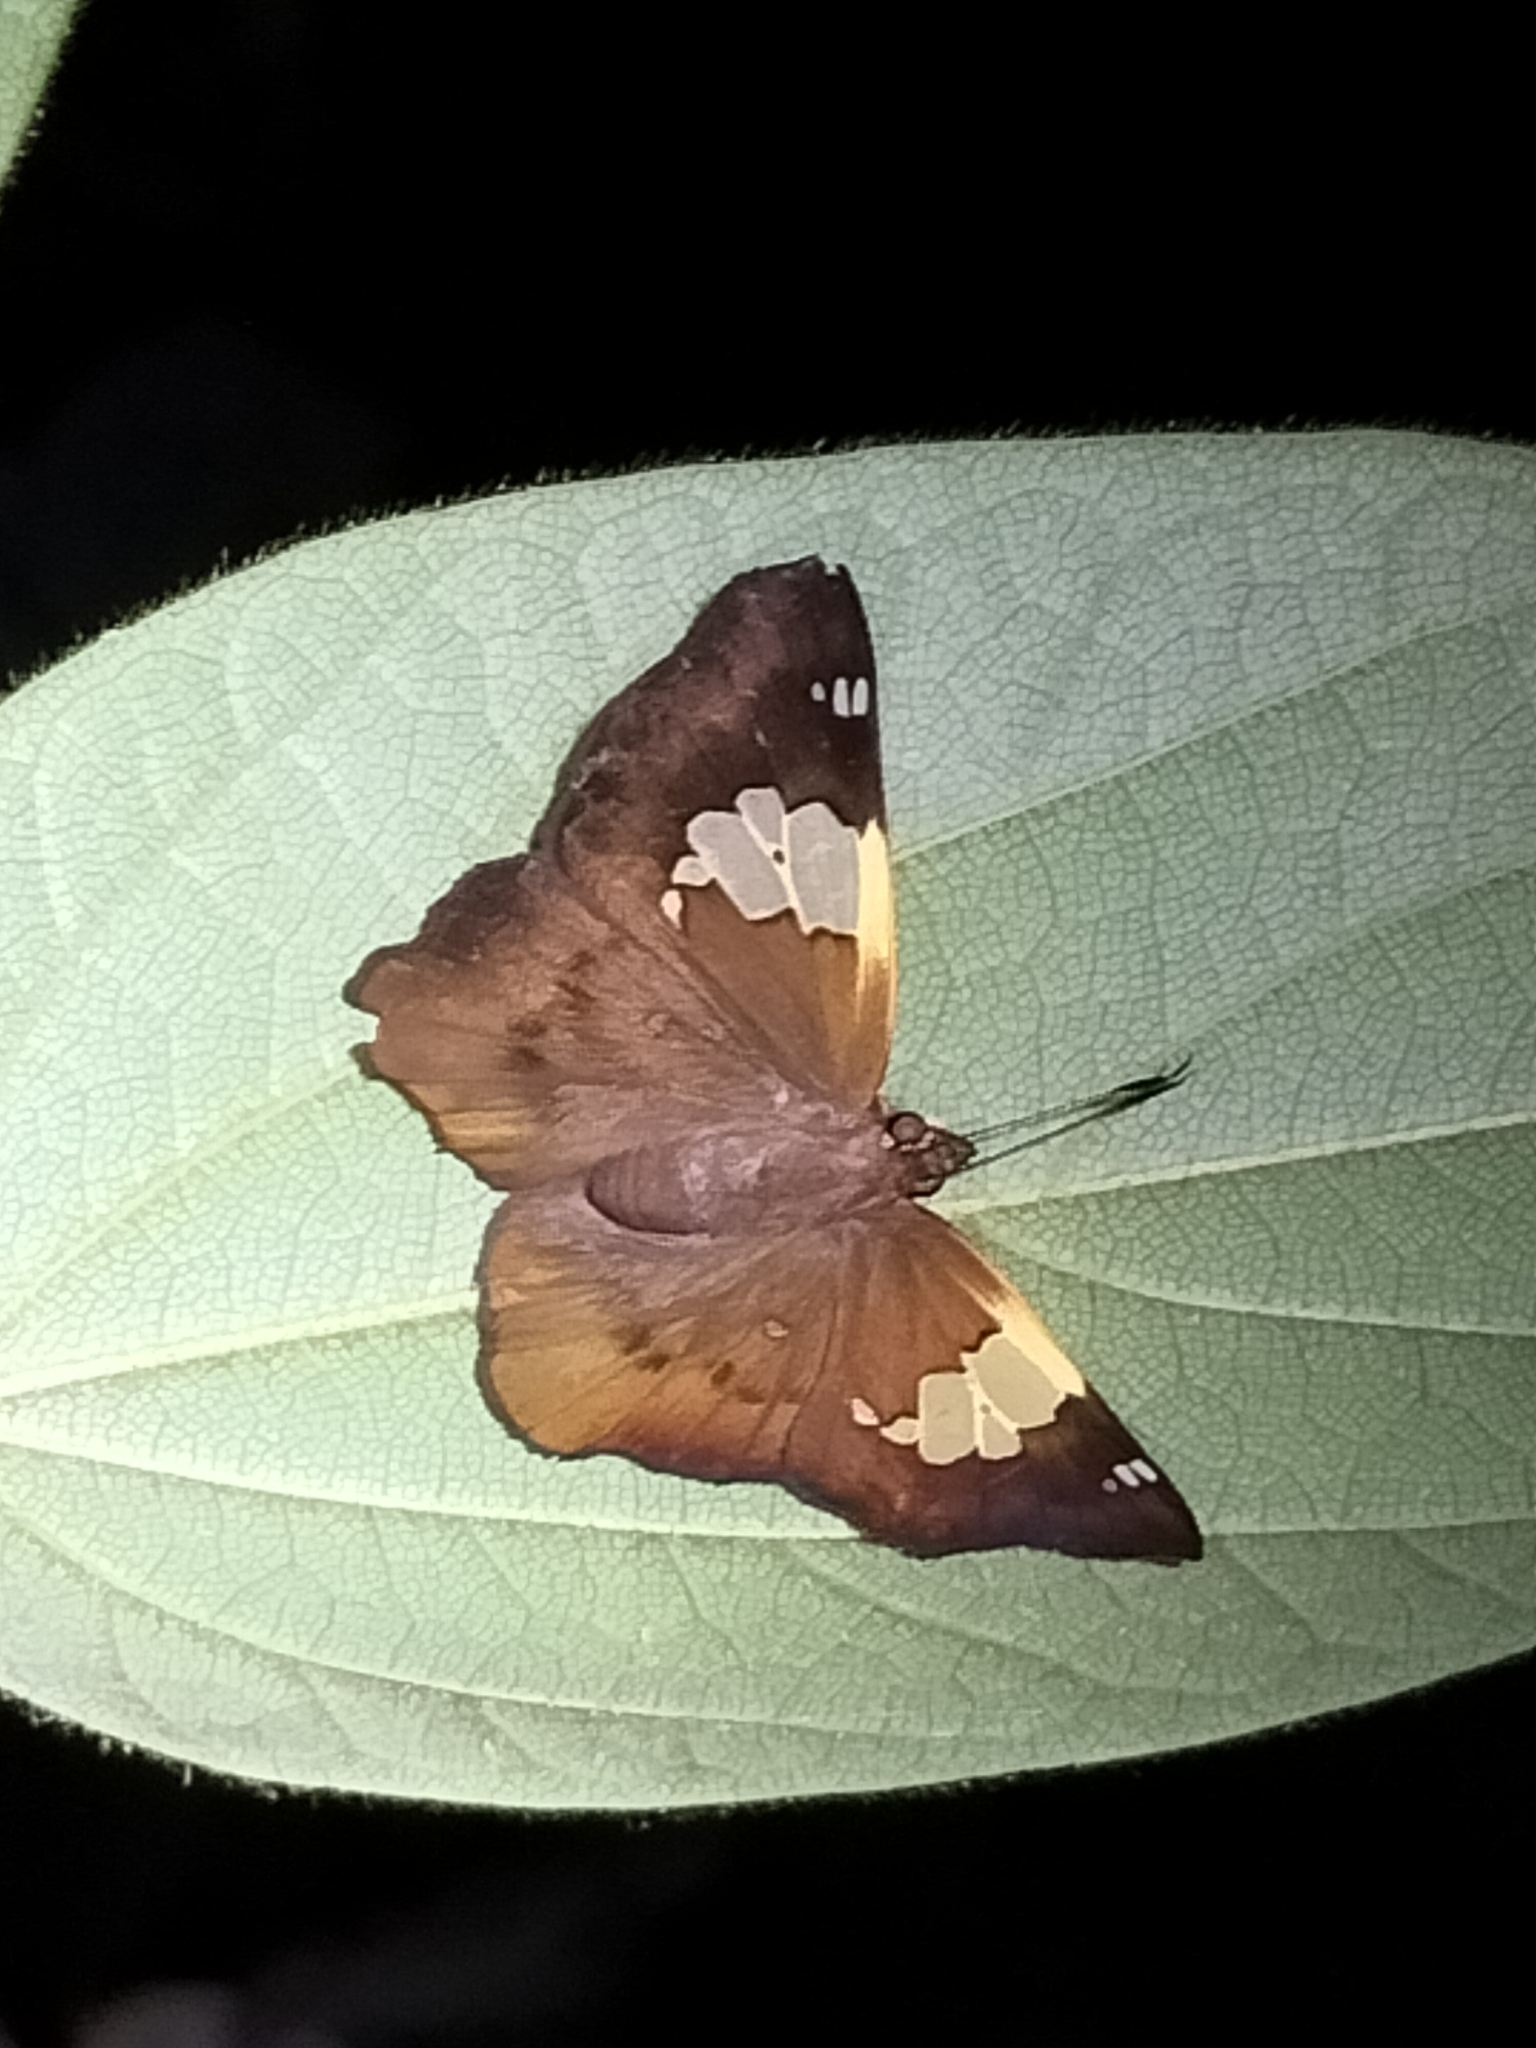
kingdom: Animalia
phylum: Arthropoda
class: Insecta
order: Lepidoptera
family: Hesperiidae
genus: Netrocoryne
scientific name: Netrocoryne repanda
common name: Bronze flat
